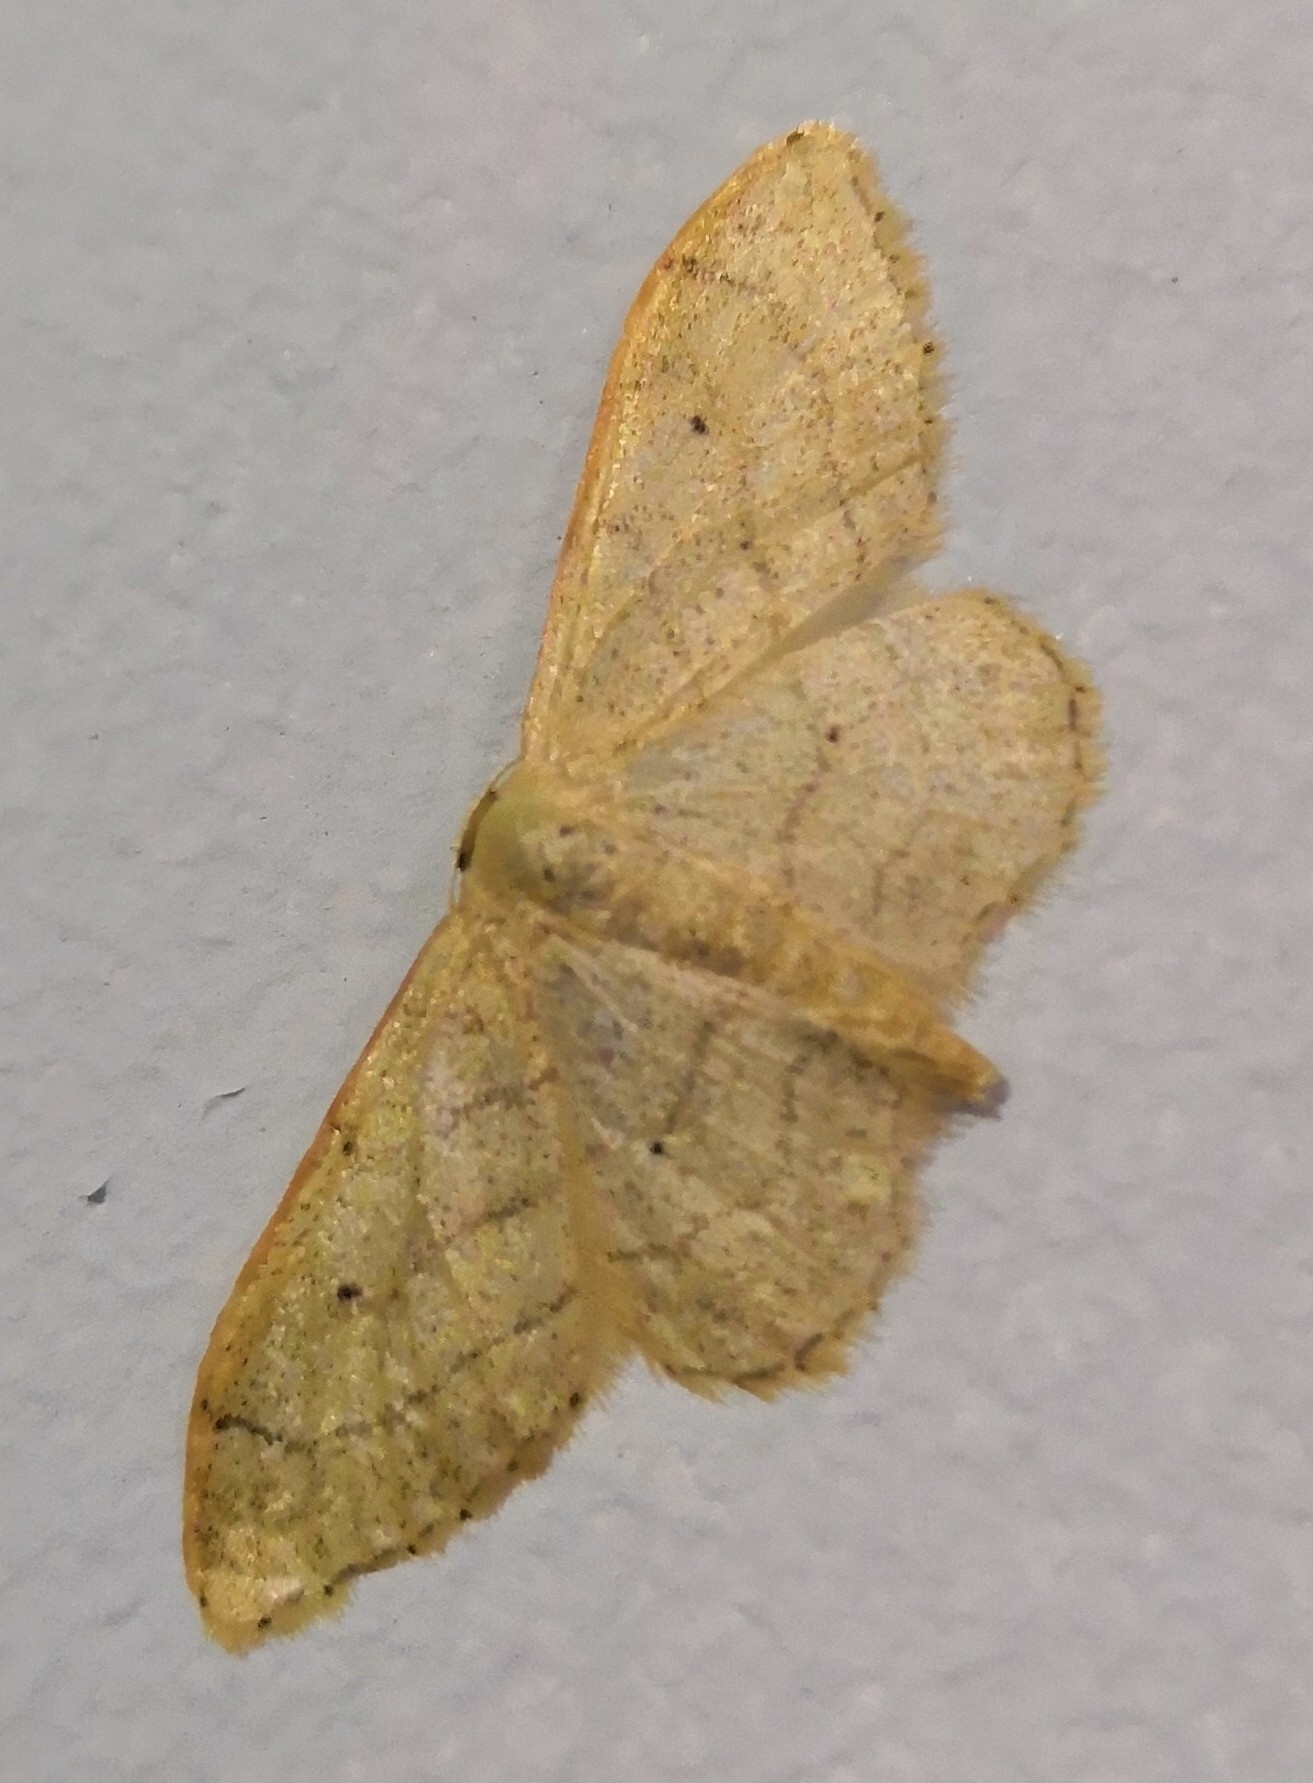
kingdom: Animalia
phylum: Arthropoda
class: Insecta
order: Lepidoptera
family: Geometridae
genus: Idaea
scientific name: Idaea aversata
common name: Riband wave
